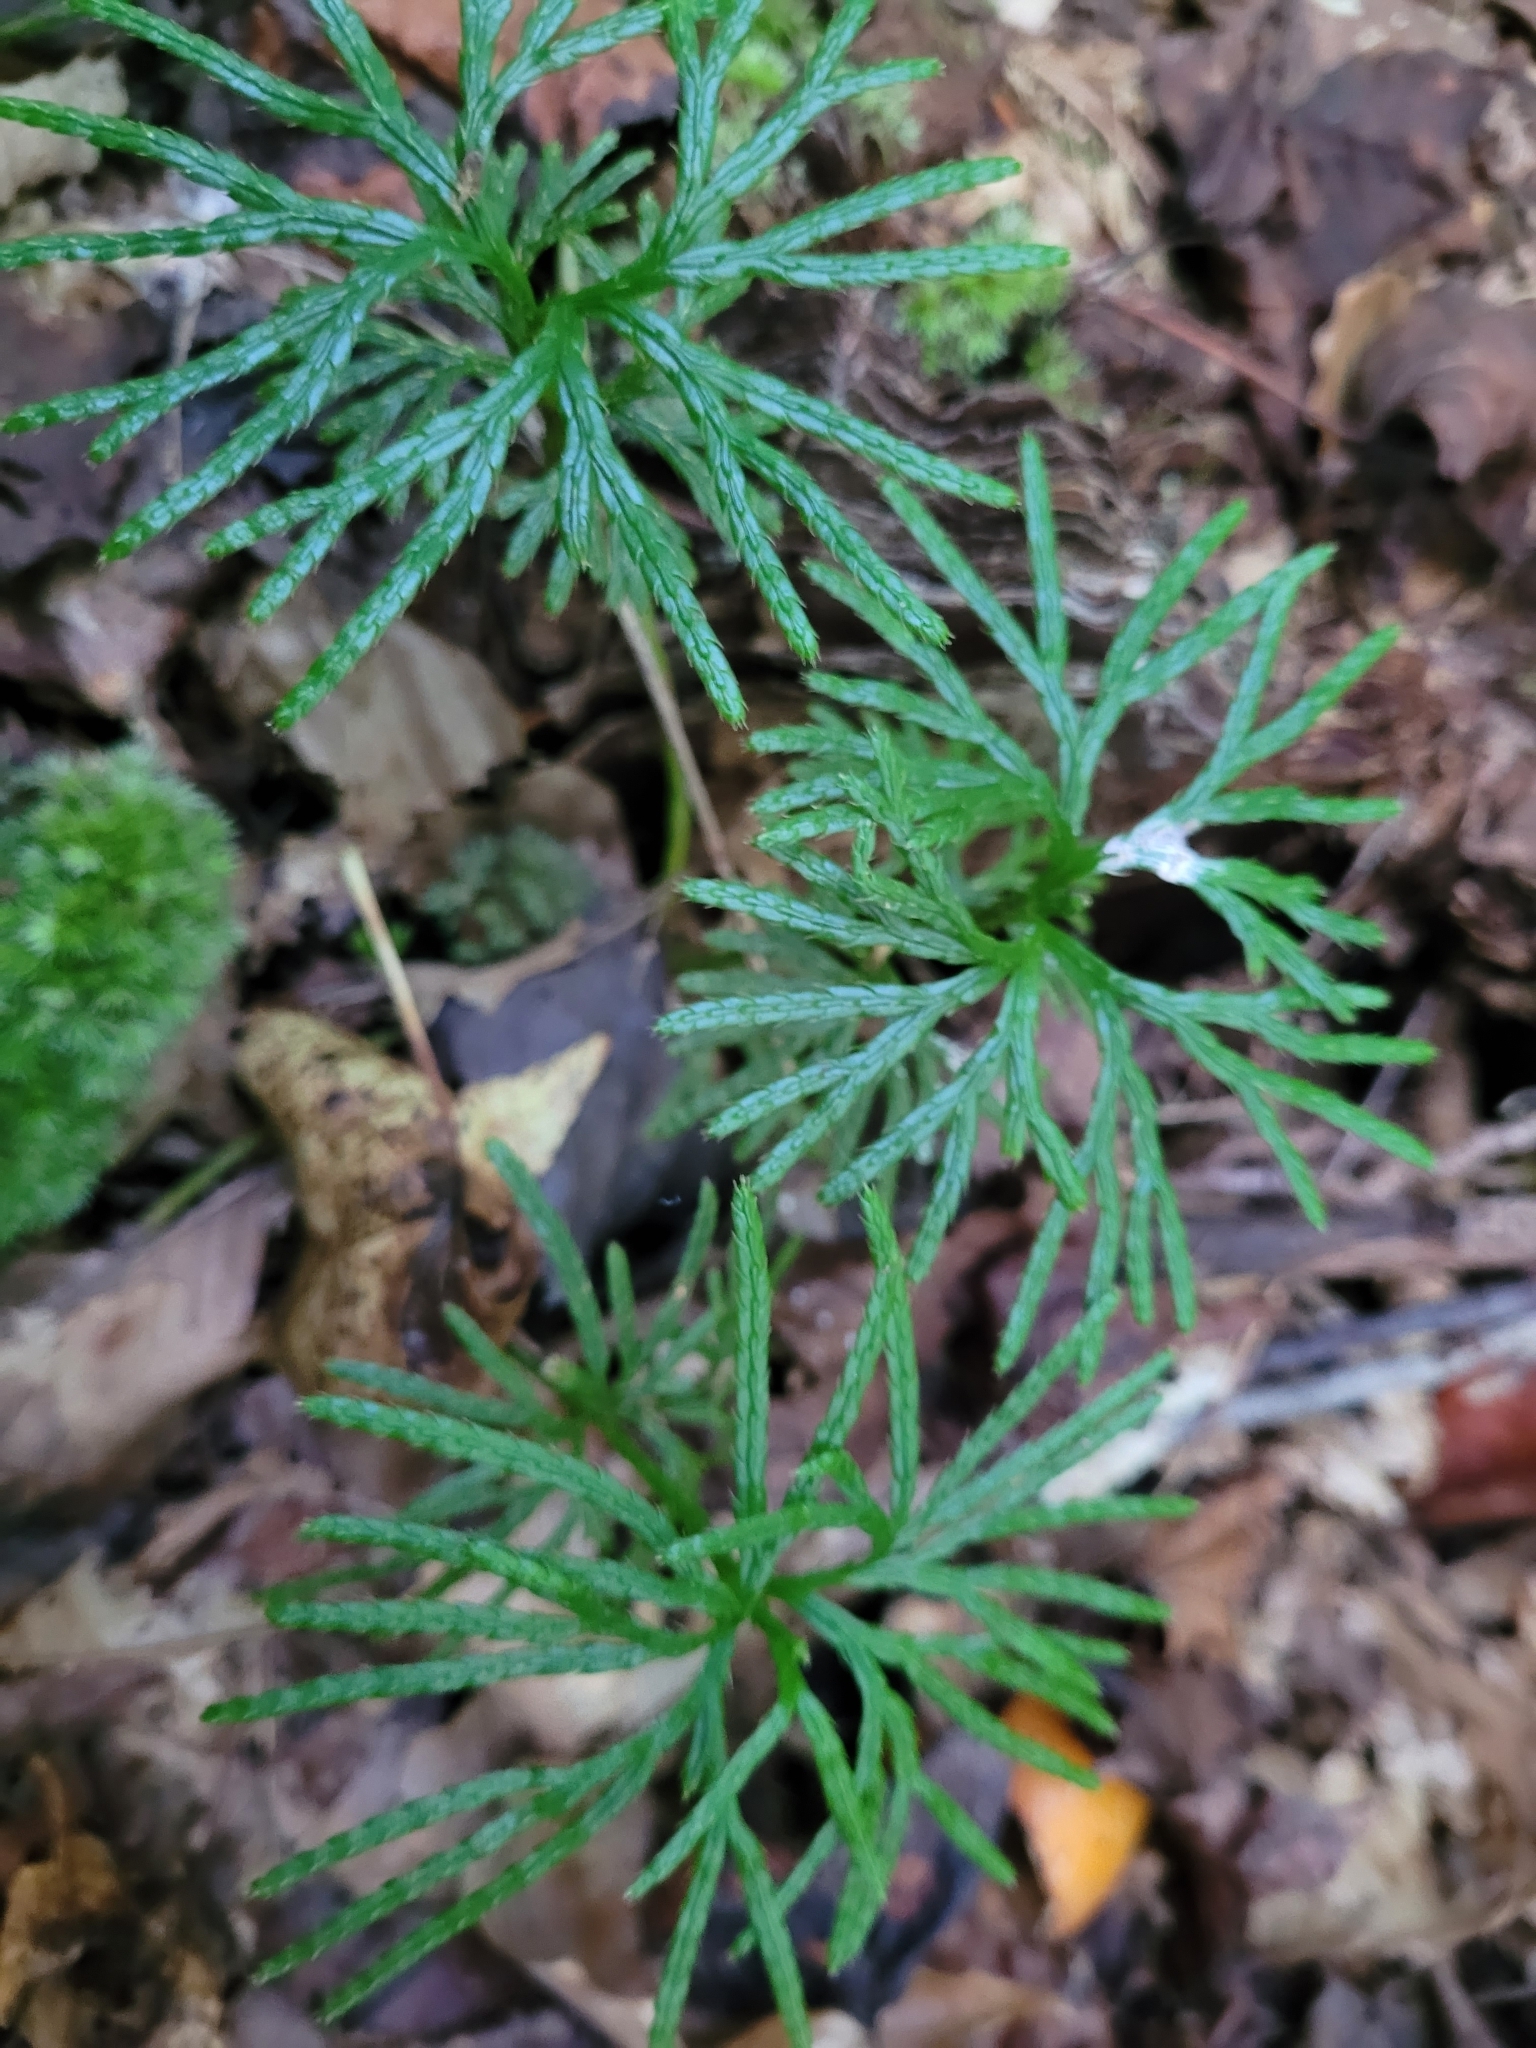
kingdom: Plantae
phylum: Tracheophyta
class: Lycopodiopsida
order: Lycopodiales
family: Lycopodiaceae
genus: Diphasiastrum
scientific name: Diphasiastrum digitatum
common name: Southern running-pine
